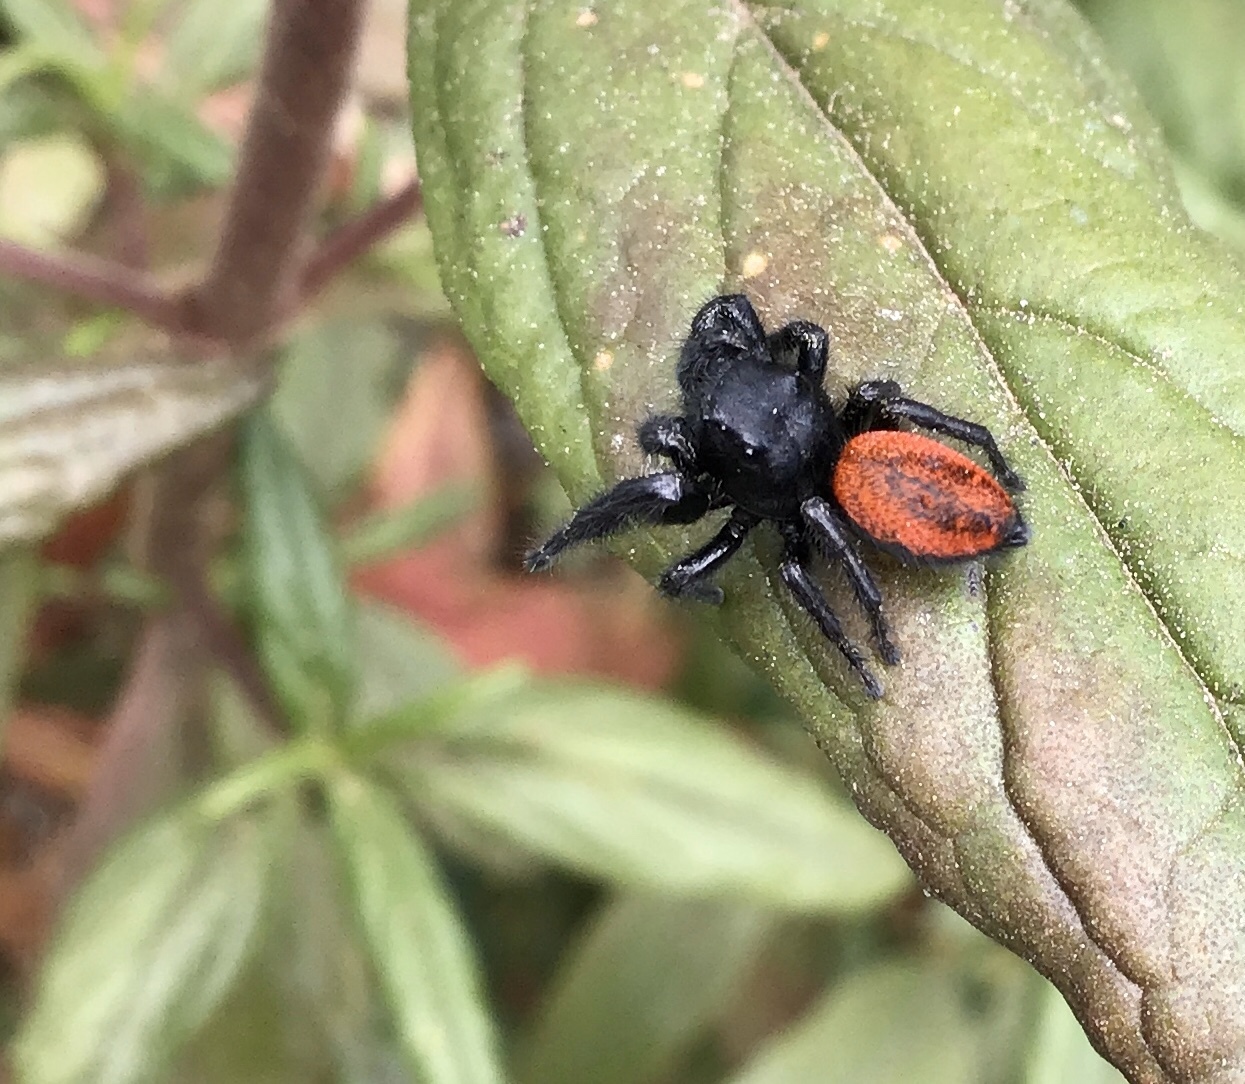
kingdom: Animalia
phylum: Arthropoda
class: Arachnida
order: Araneae
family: Salticidae
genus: Phidippus
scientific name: Phidippus johnsoni
